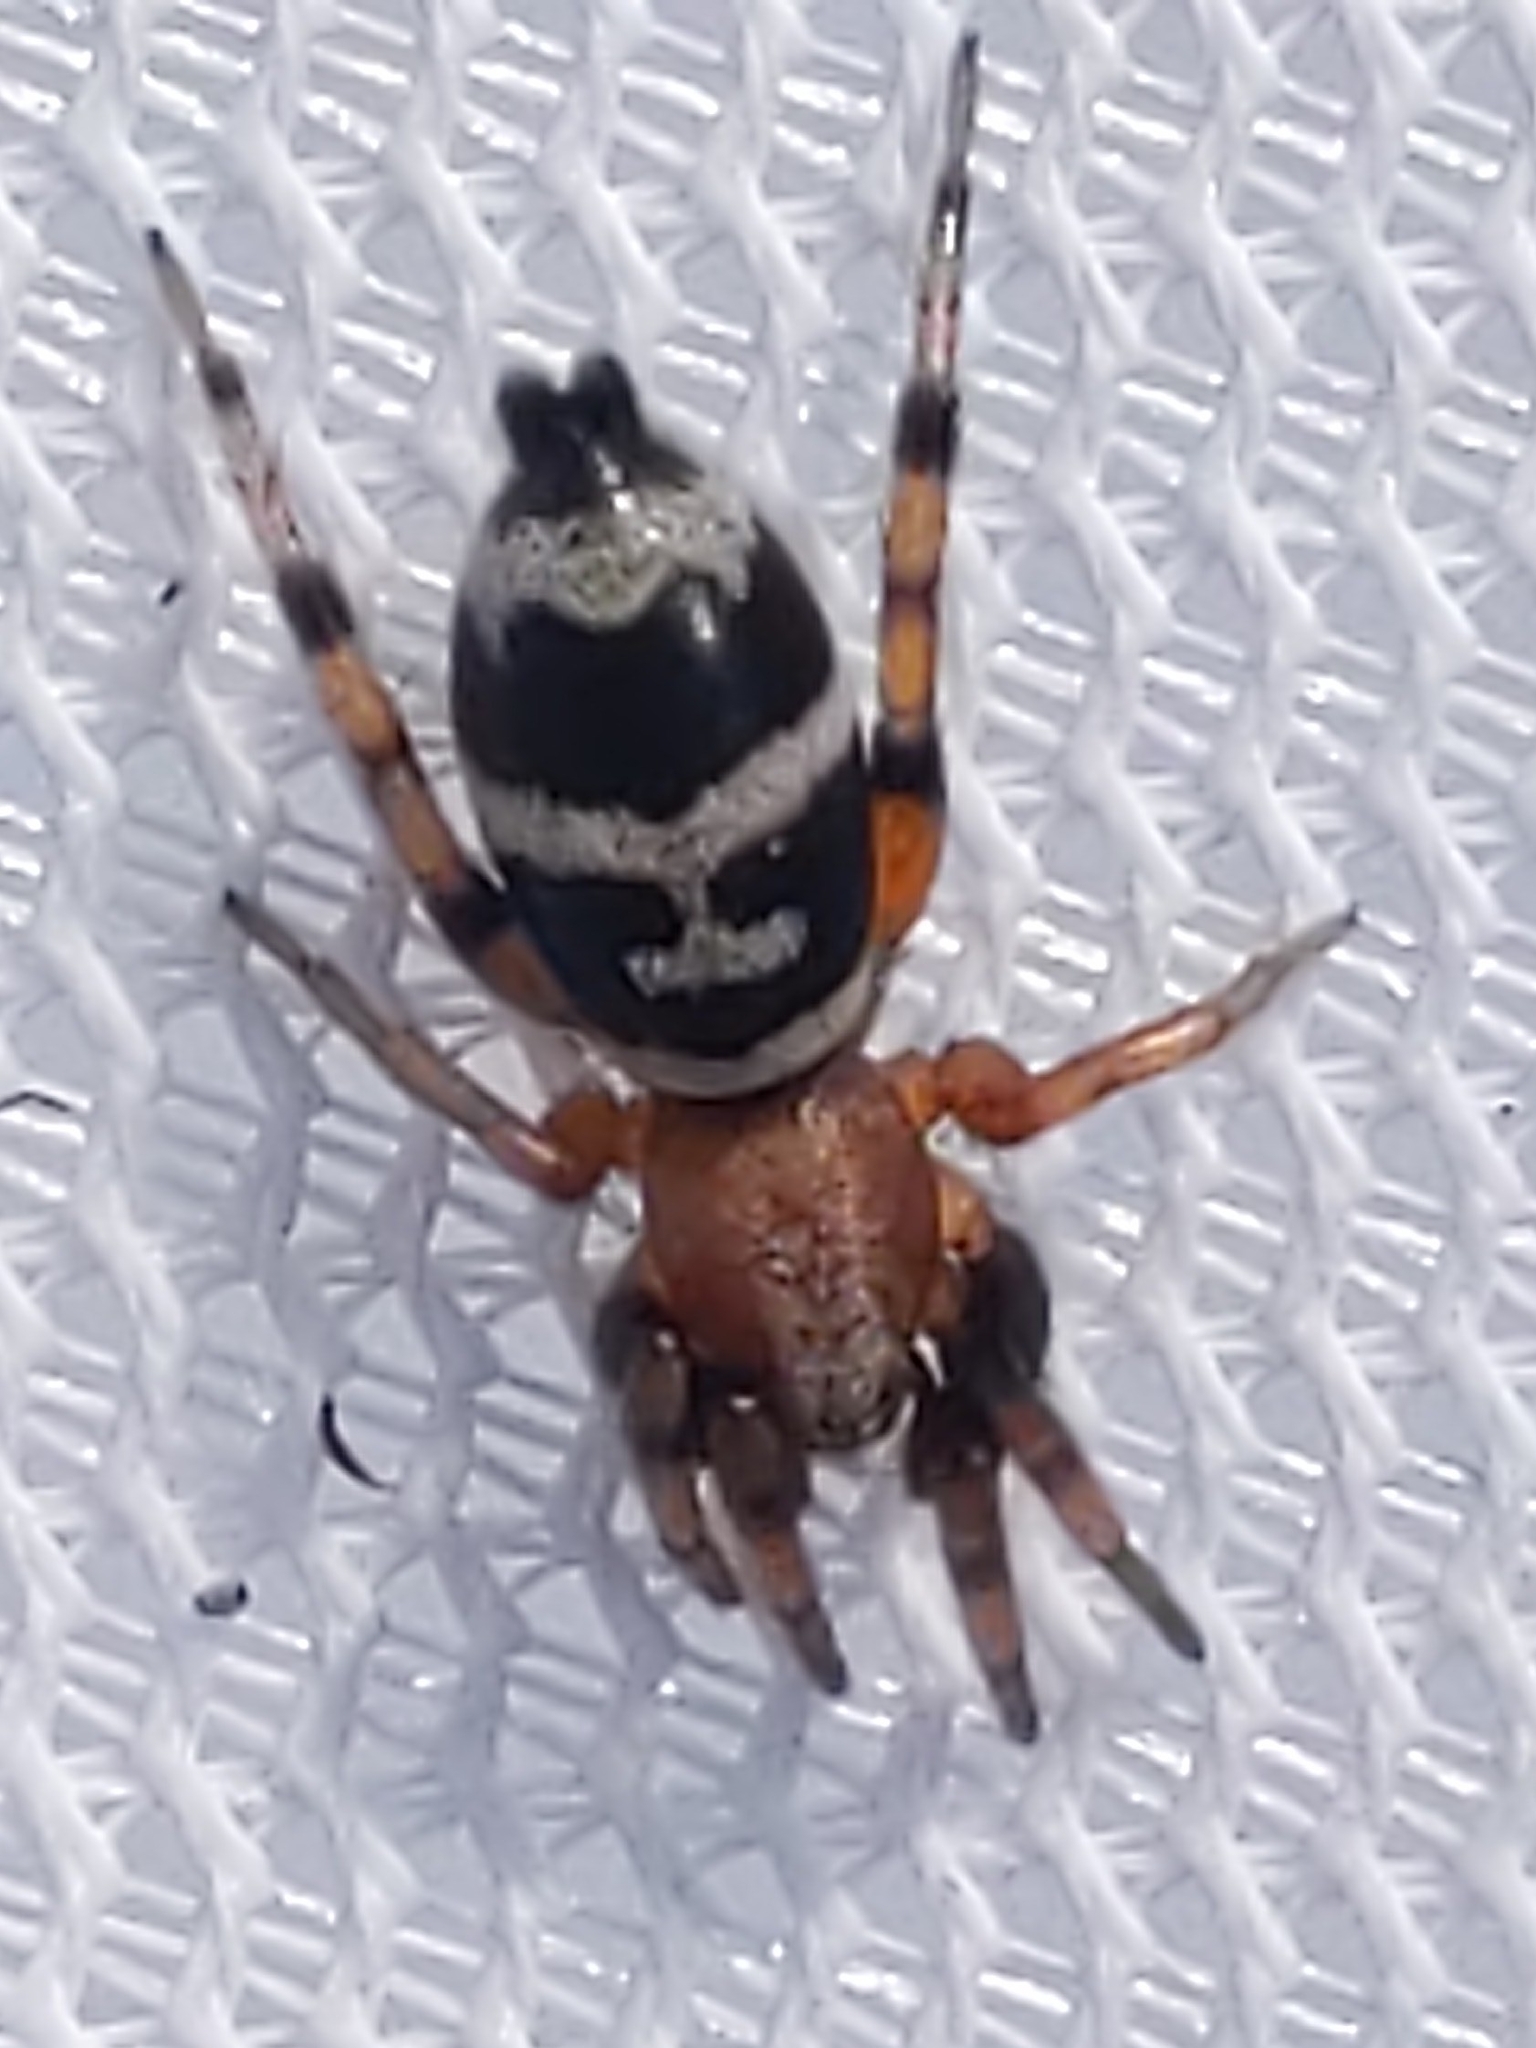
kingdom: Animalia
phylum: Arthropoda
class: Arachnida
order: Araneae
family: Gnaphosidae
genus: Sergiolus
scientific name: Sergiolus capulatus
